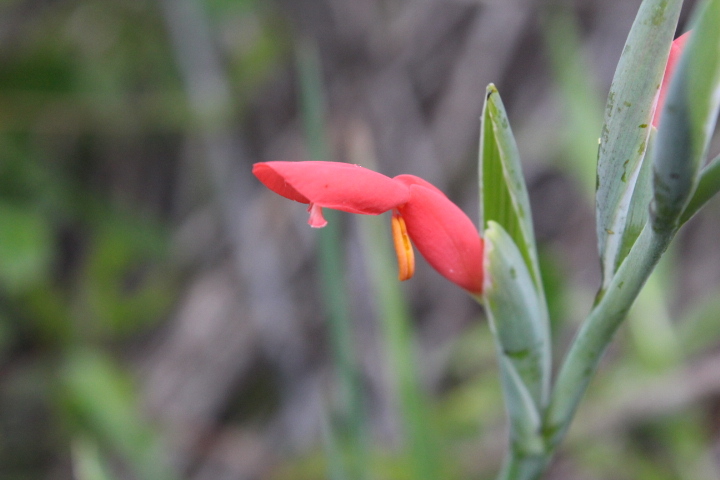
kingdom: Plantae
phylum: Tracheophyta
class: Liliopsida
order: Asparagales
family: Iridaceae
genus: Gladiolus
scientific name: Gladiolus cunonius
